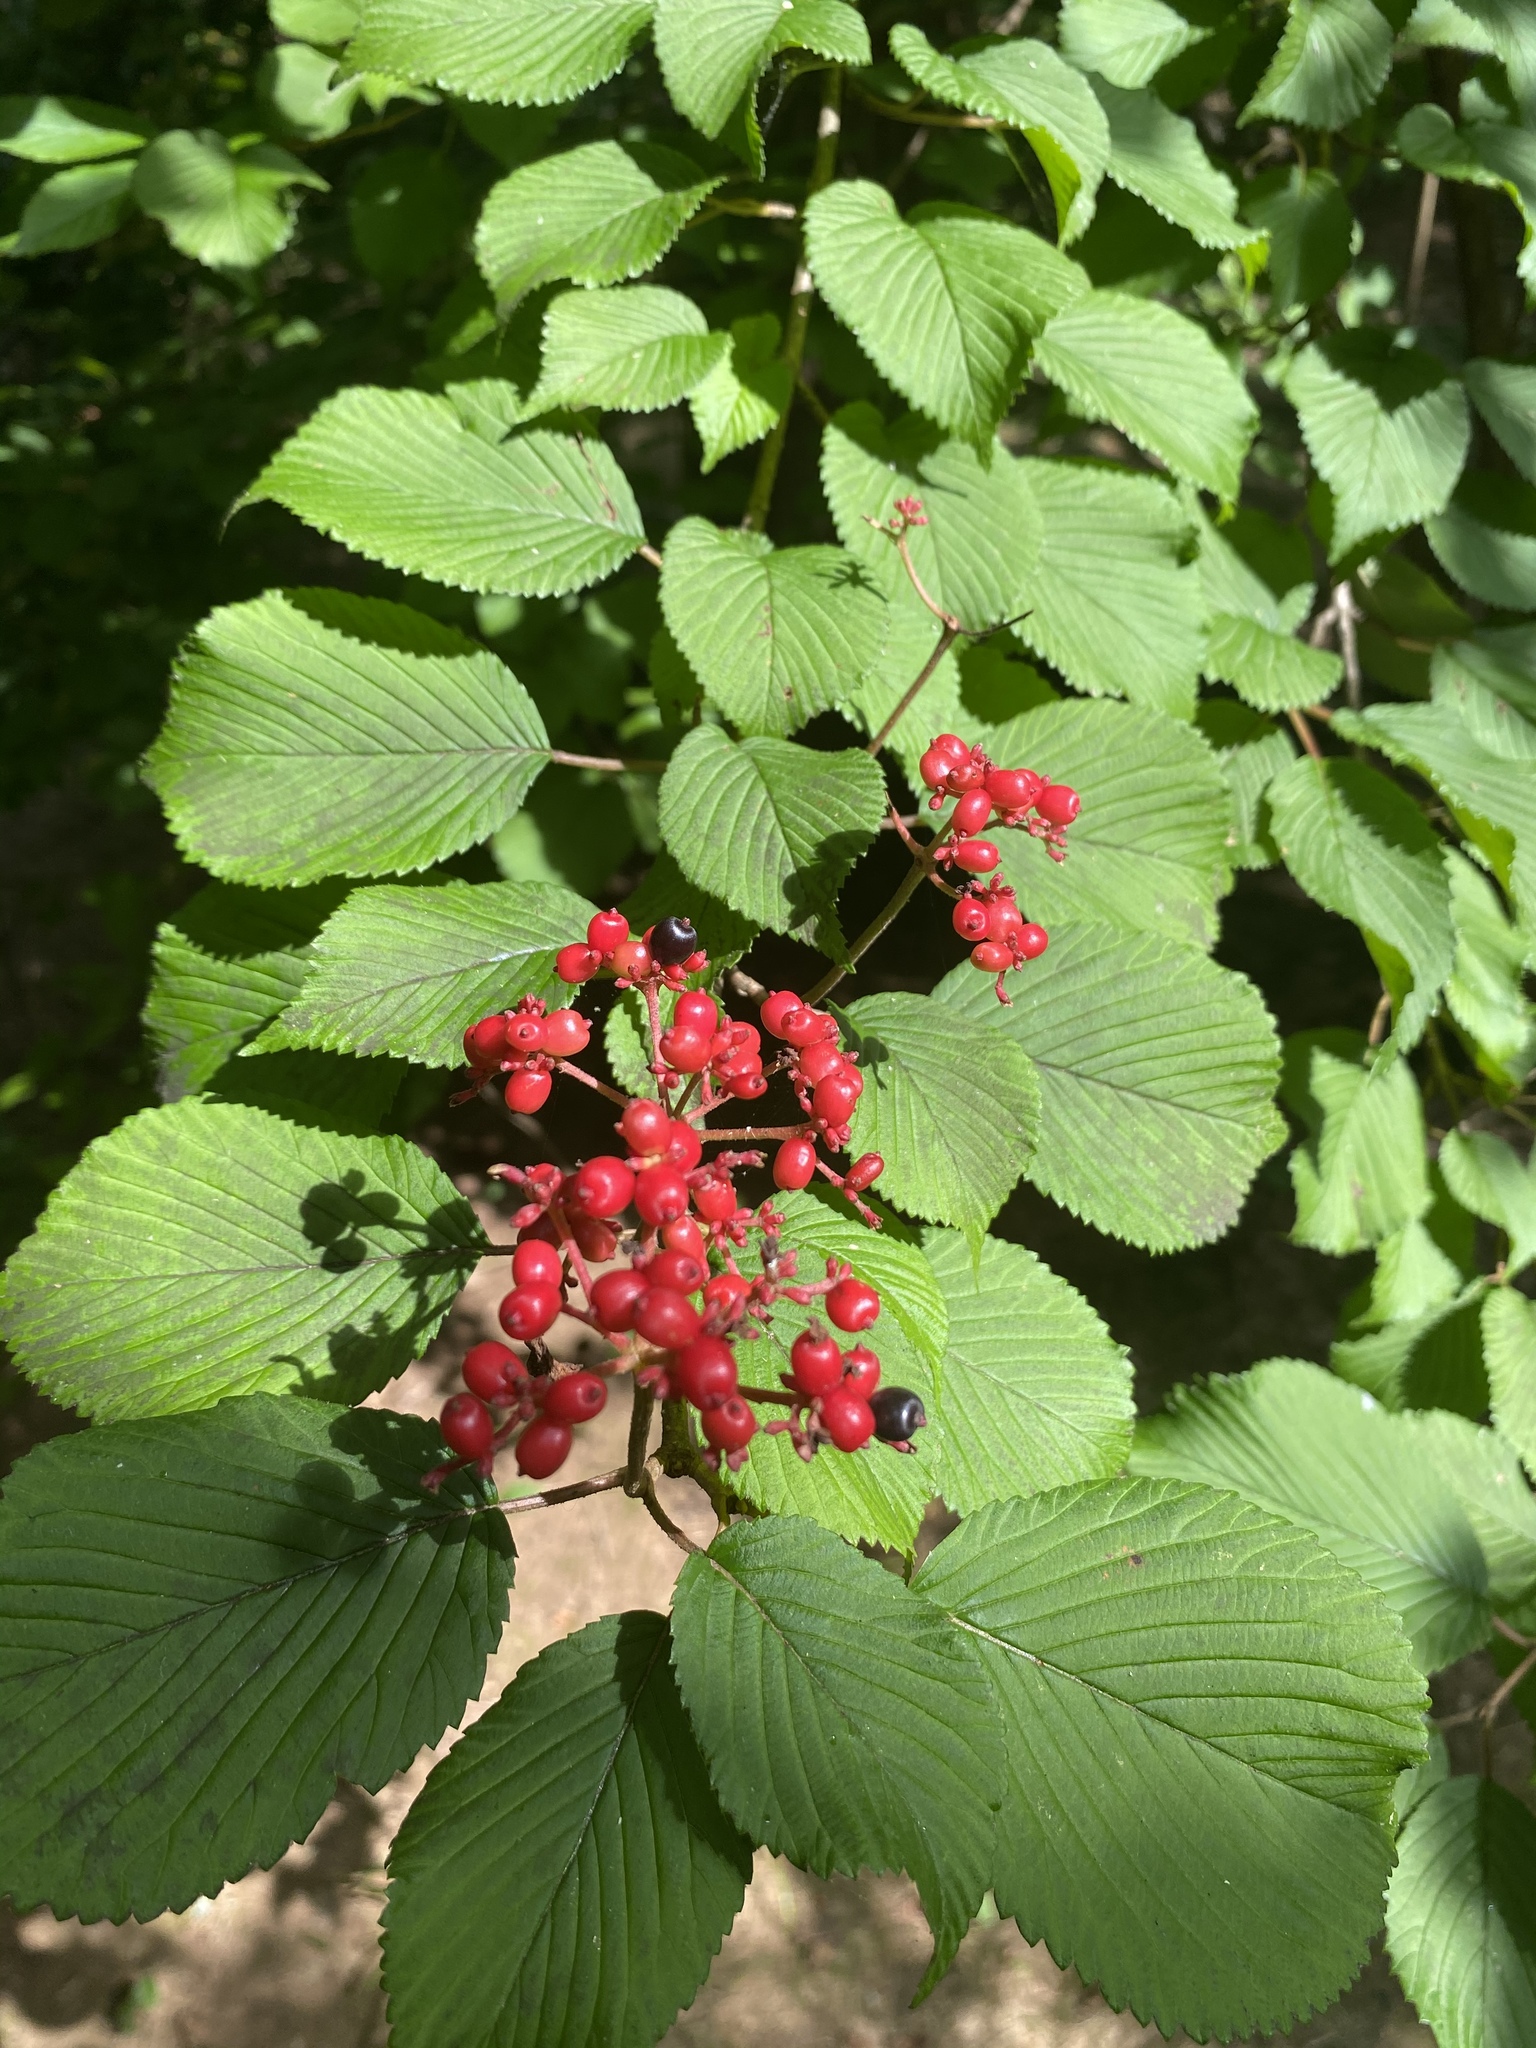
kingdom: Plantae
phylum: Tracheophyta
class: Magnoliopsida
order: Dipsacales
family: Viburnaceae
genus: Viburnum
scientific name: Viburnum plicatum
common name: Japanese snowball
